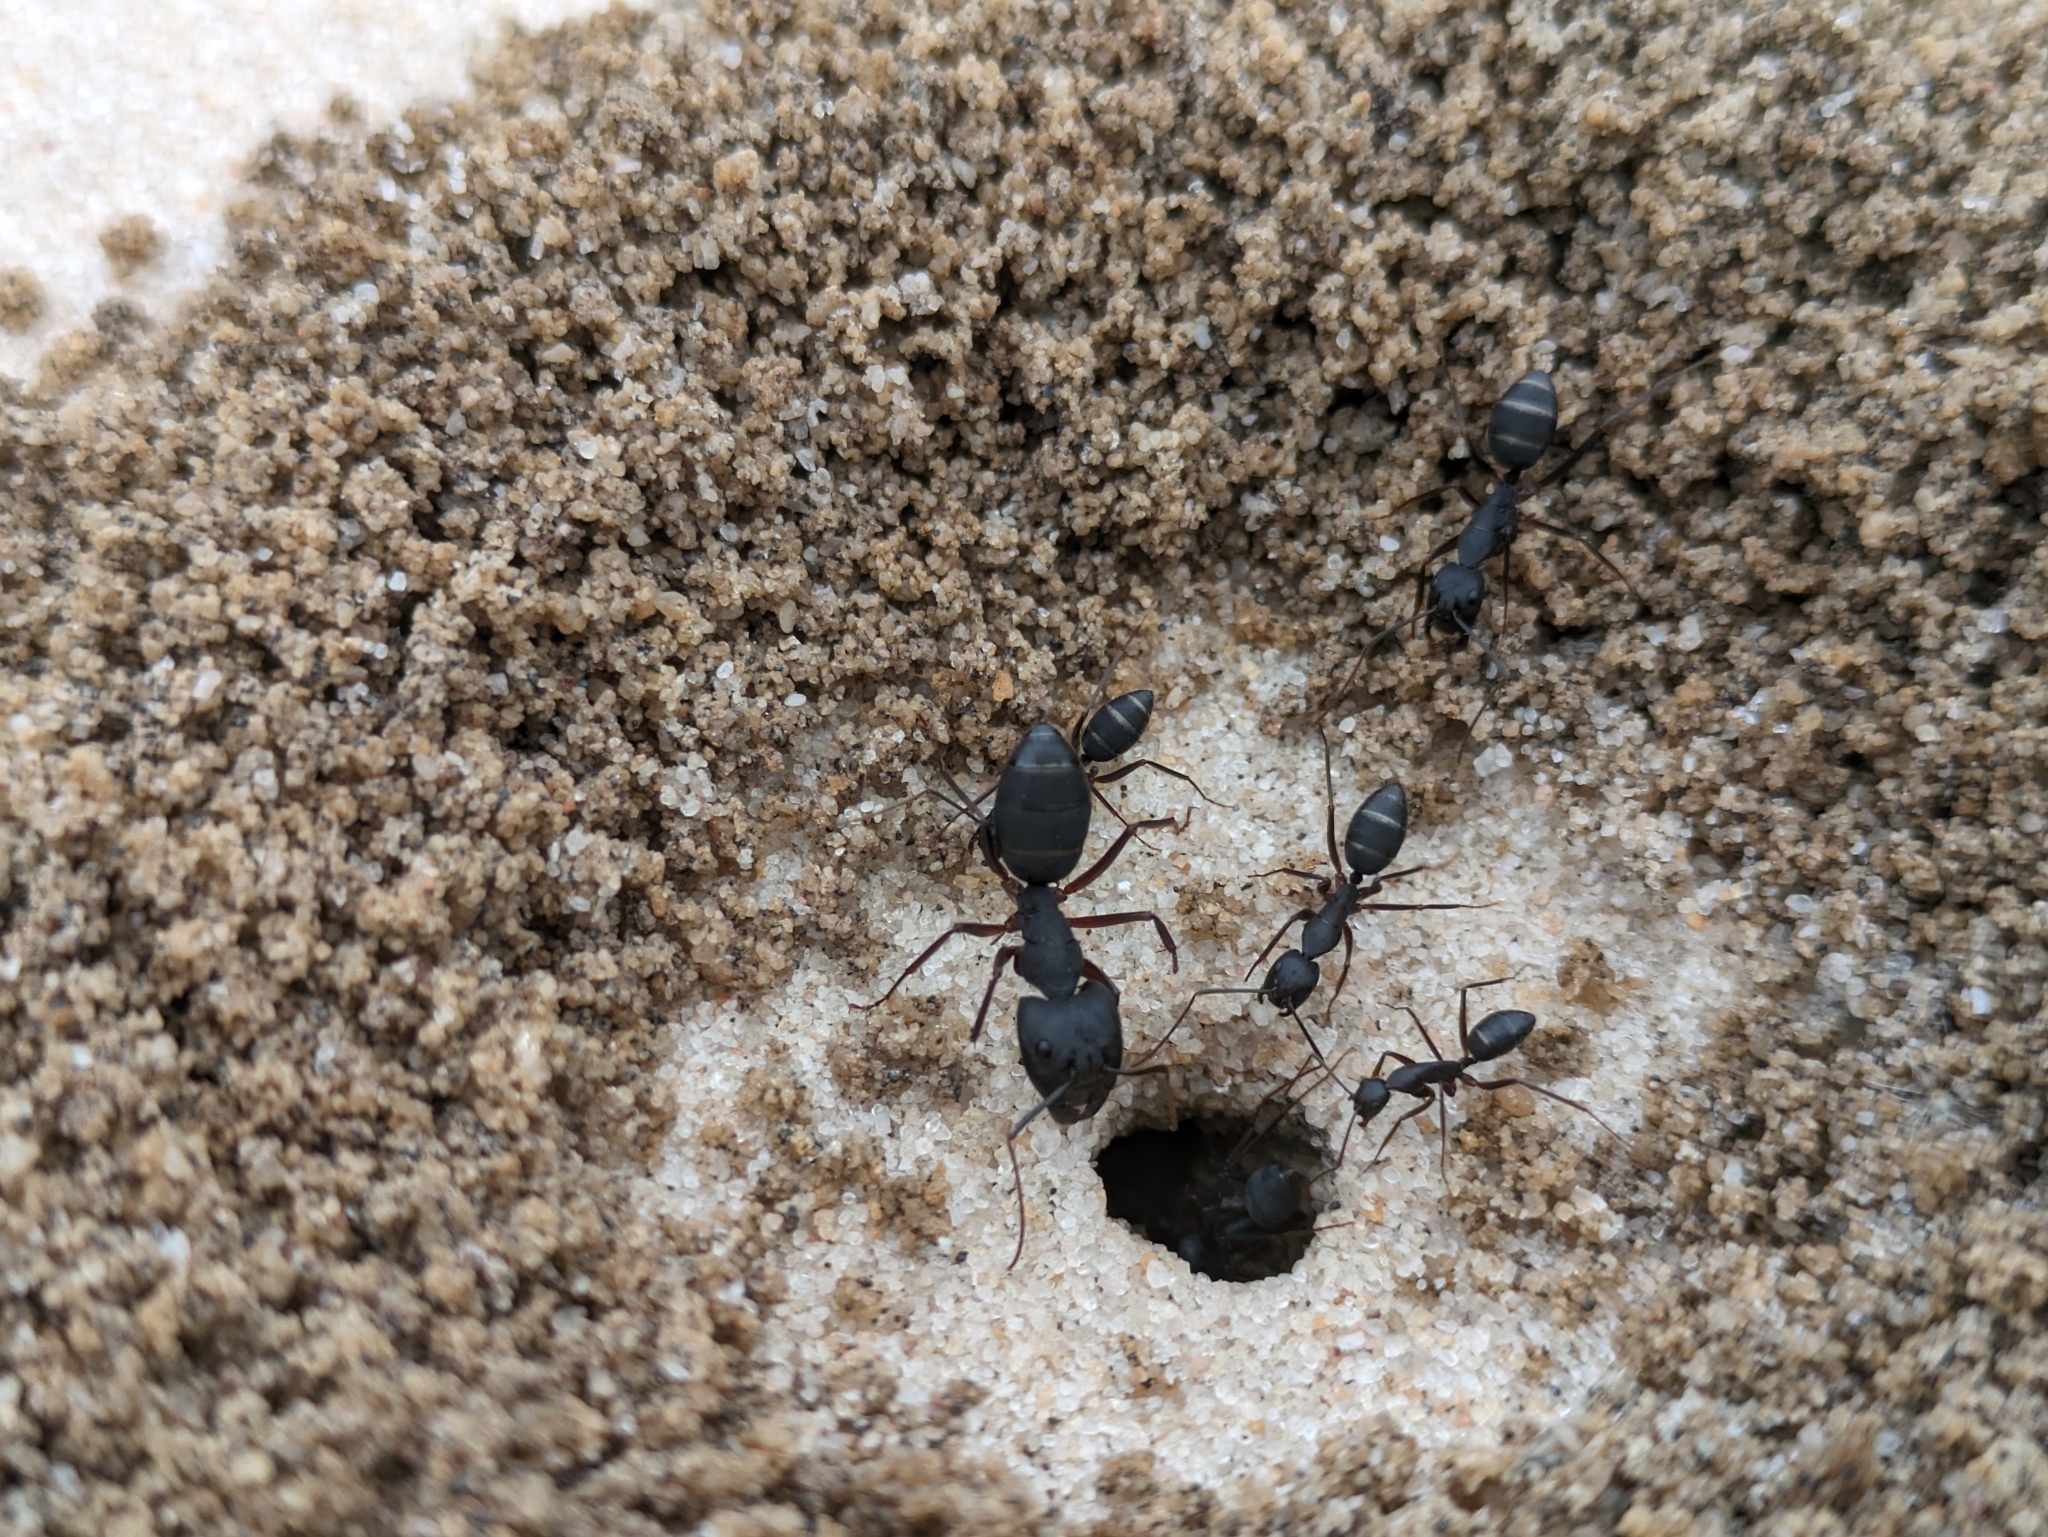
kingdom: Animalia
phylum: Arthropoda
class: Insecta
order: Hymenoptera
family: Formicidae
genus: Camponotus
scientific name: Camponotus compressus
